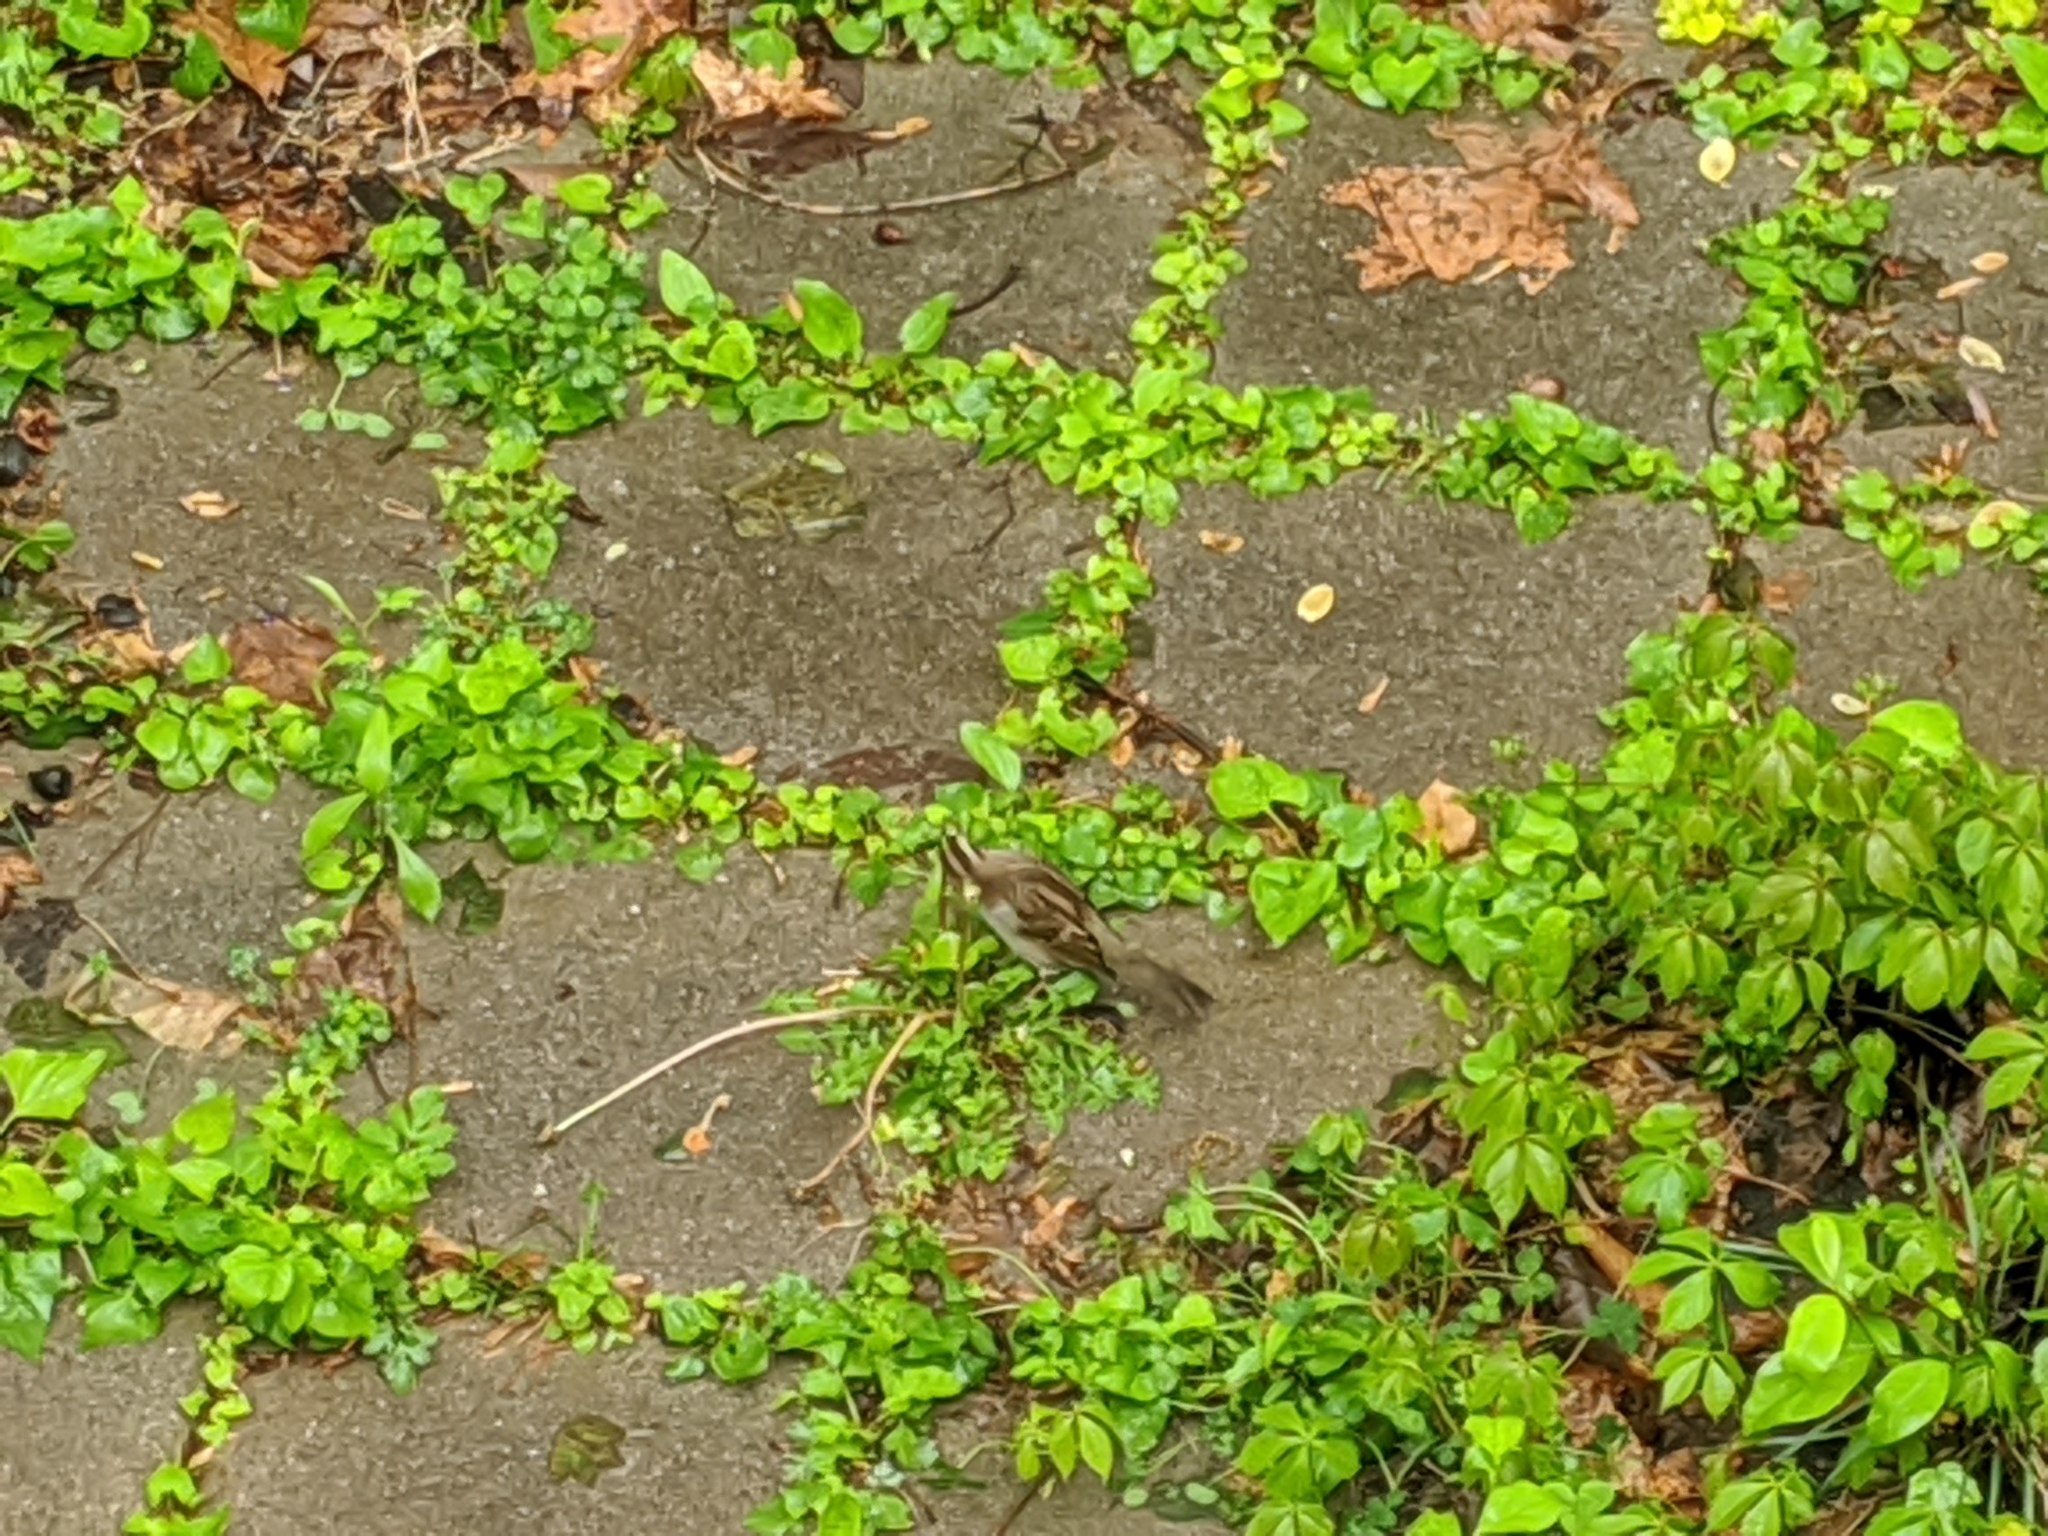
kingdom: Animalia
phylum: Chordata
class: Aves
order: Passeriformes
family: Passerellidae
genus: Zonotrichia
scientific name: Zonotrichia albicollis
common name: White-throated sparrow
